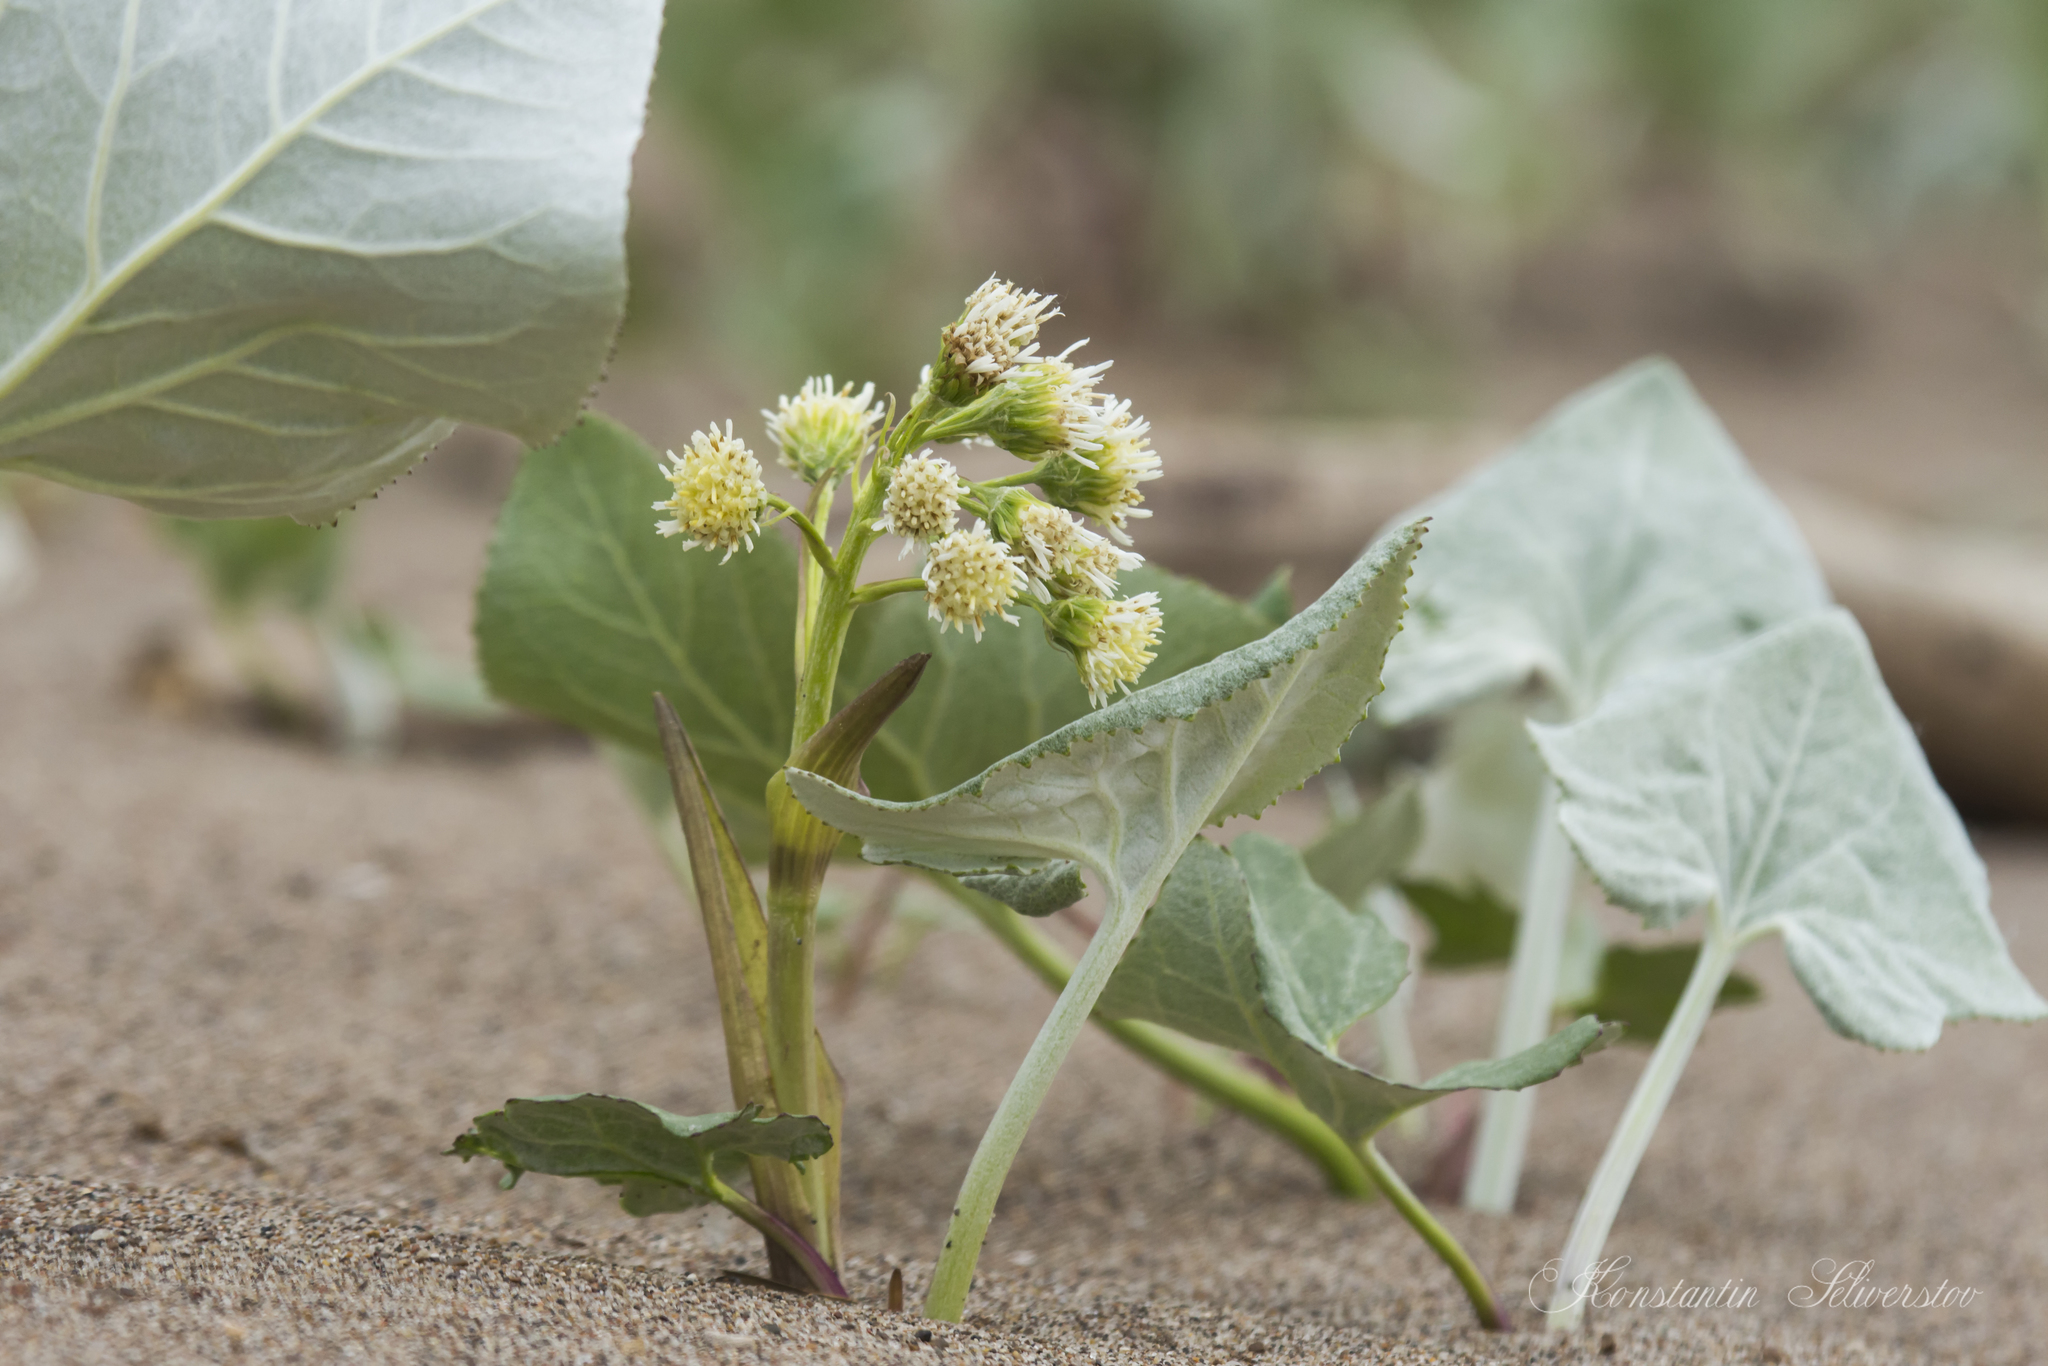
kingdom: Plantae
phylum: Tracheophyta
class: Magnoliopsida
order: Asterales
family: Asteraceae
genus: Petasites
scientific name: Petasites spurius
